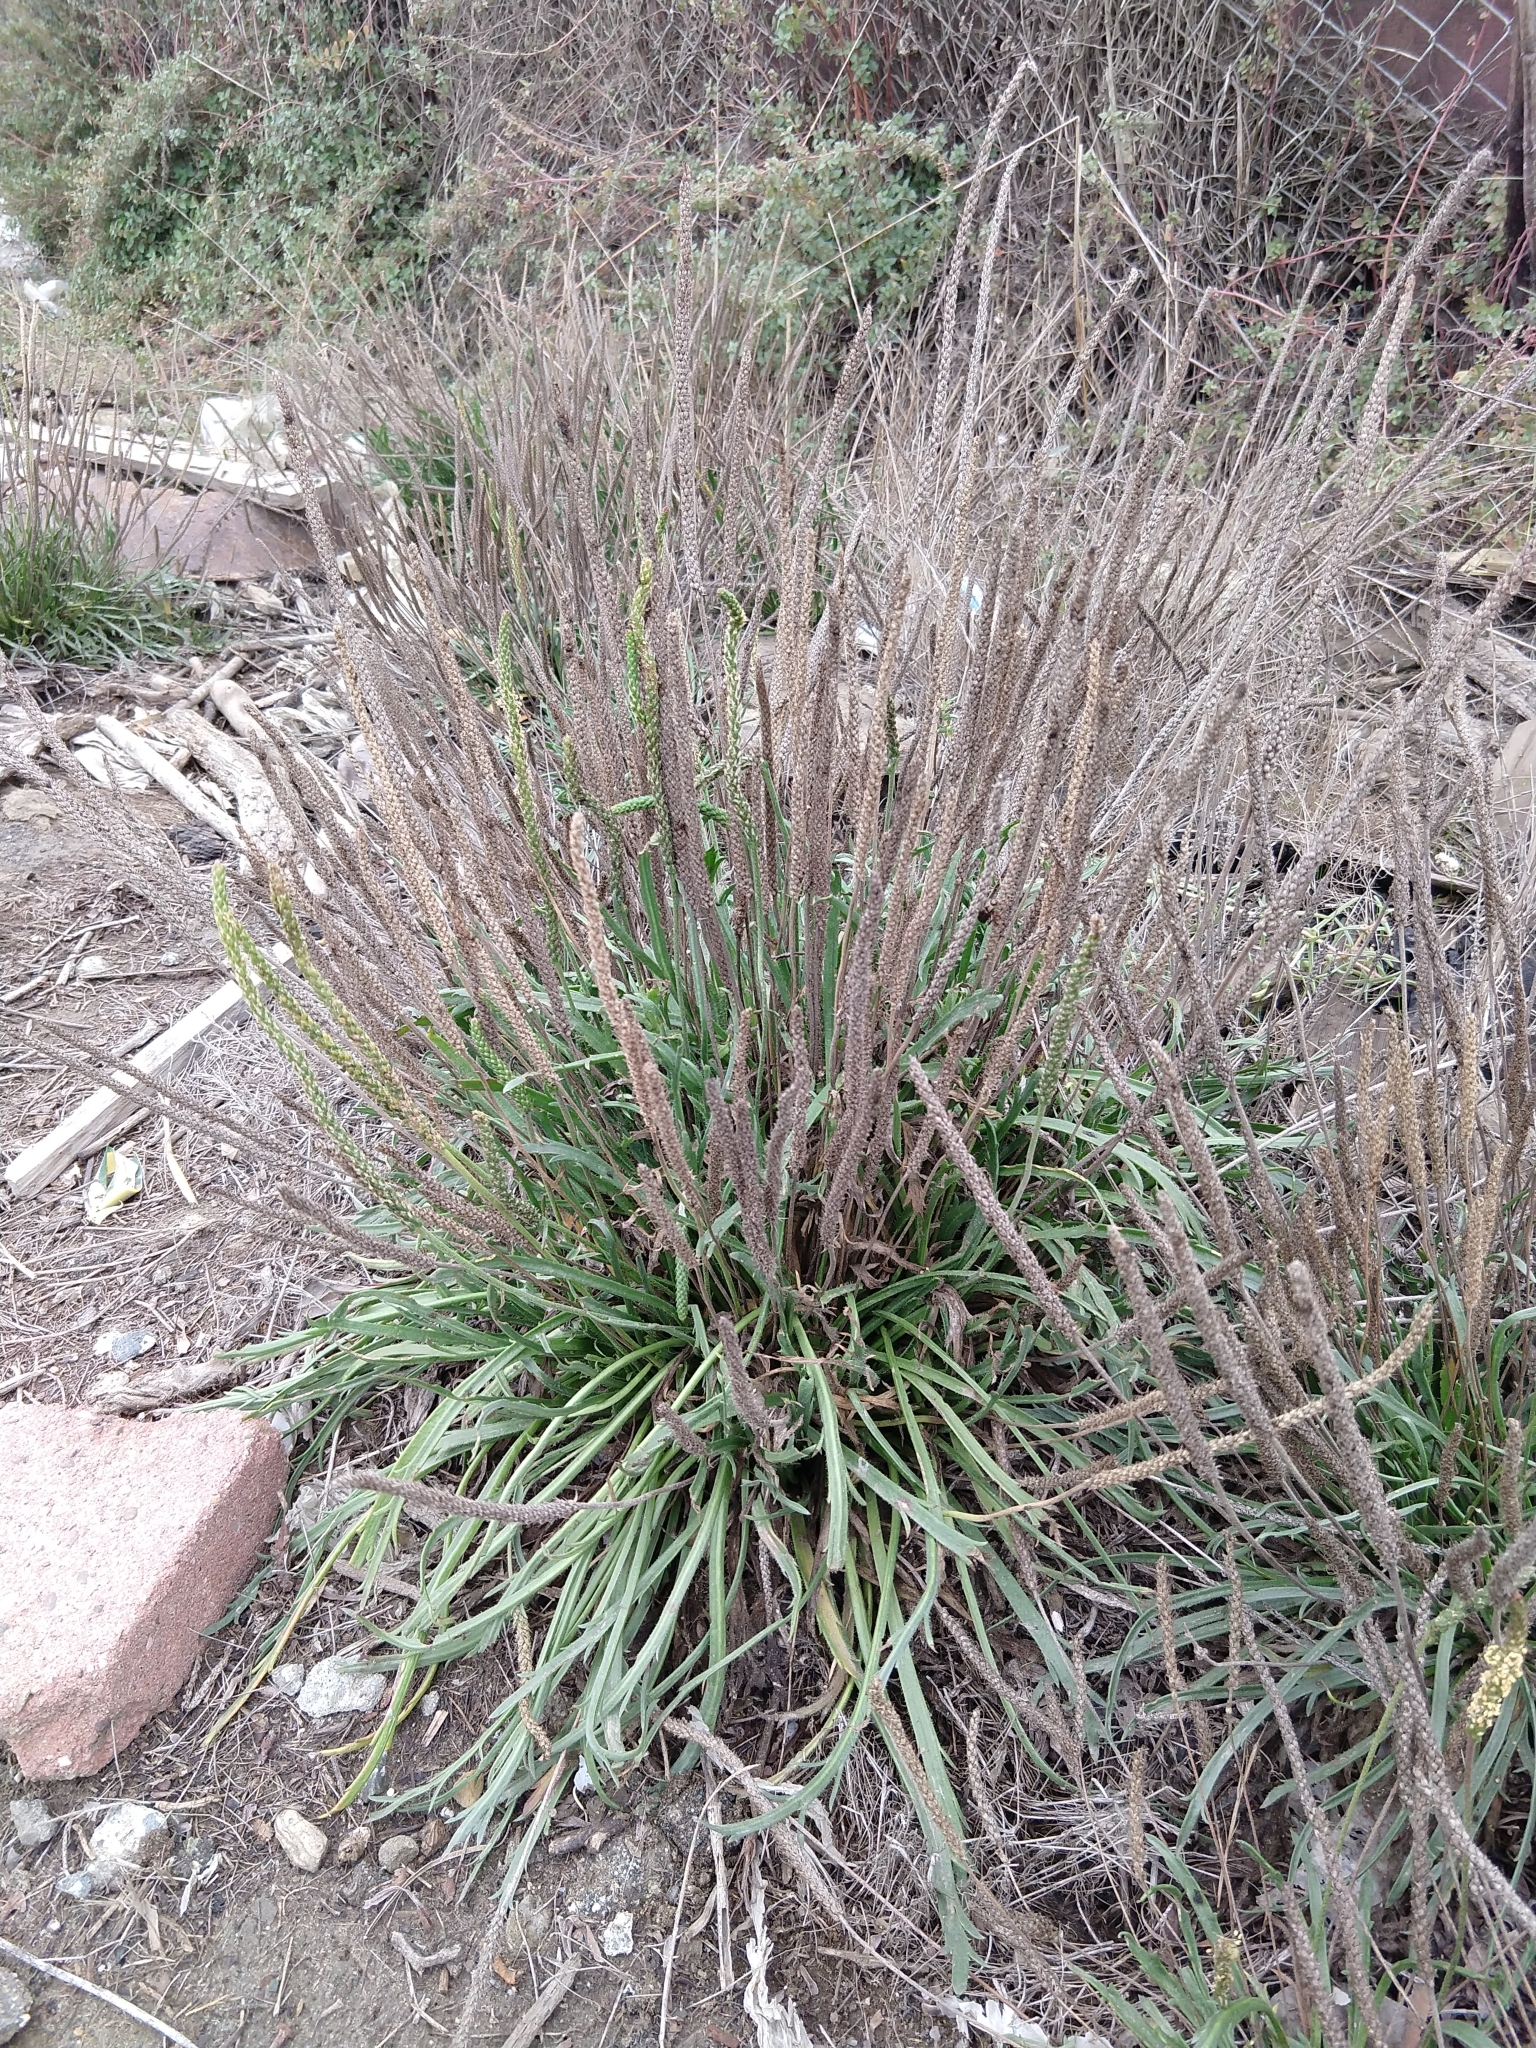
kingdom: Plantae
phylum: Tracheophyta
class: Magnoliopsida
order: Lamiales
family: Plantaginaceae
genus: Plantago
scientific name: Plantago coronopus
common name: Buck's-horn plantain
